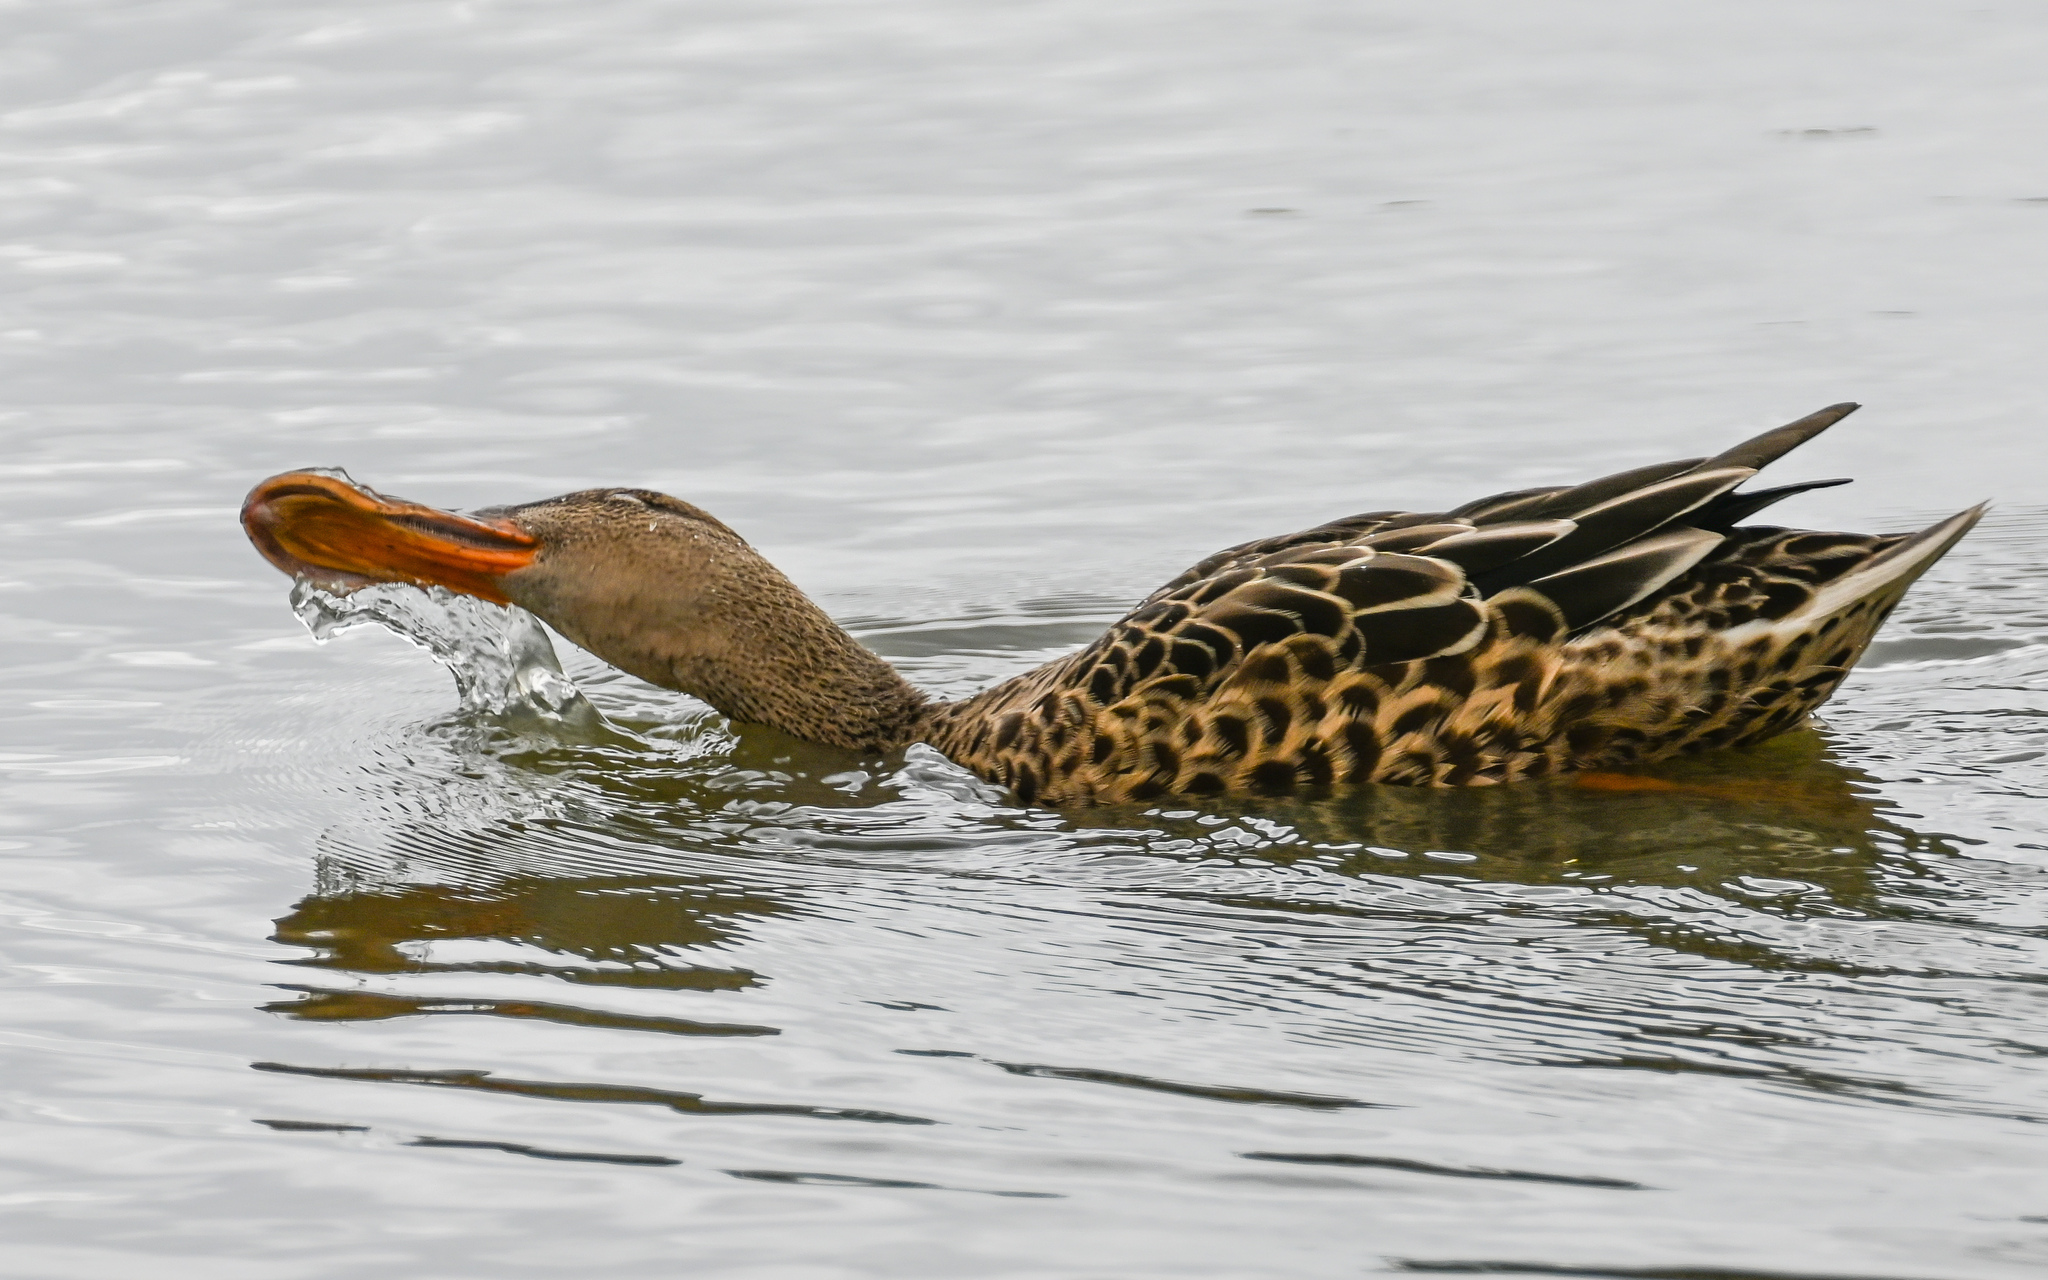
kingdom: Animalia
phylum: Chordata
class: Aves
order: Anseriformes
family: Anatidae
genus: Spatula
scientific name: Spatula clypeata
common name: Northern shoveler
